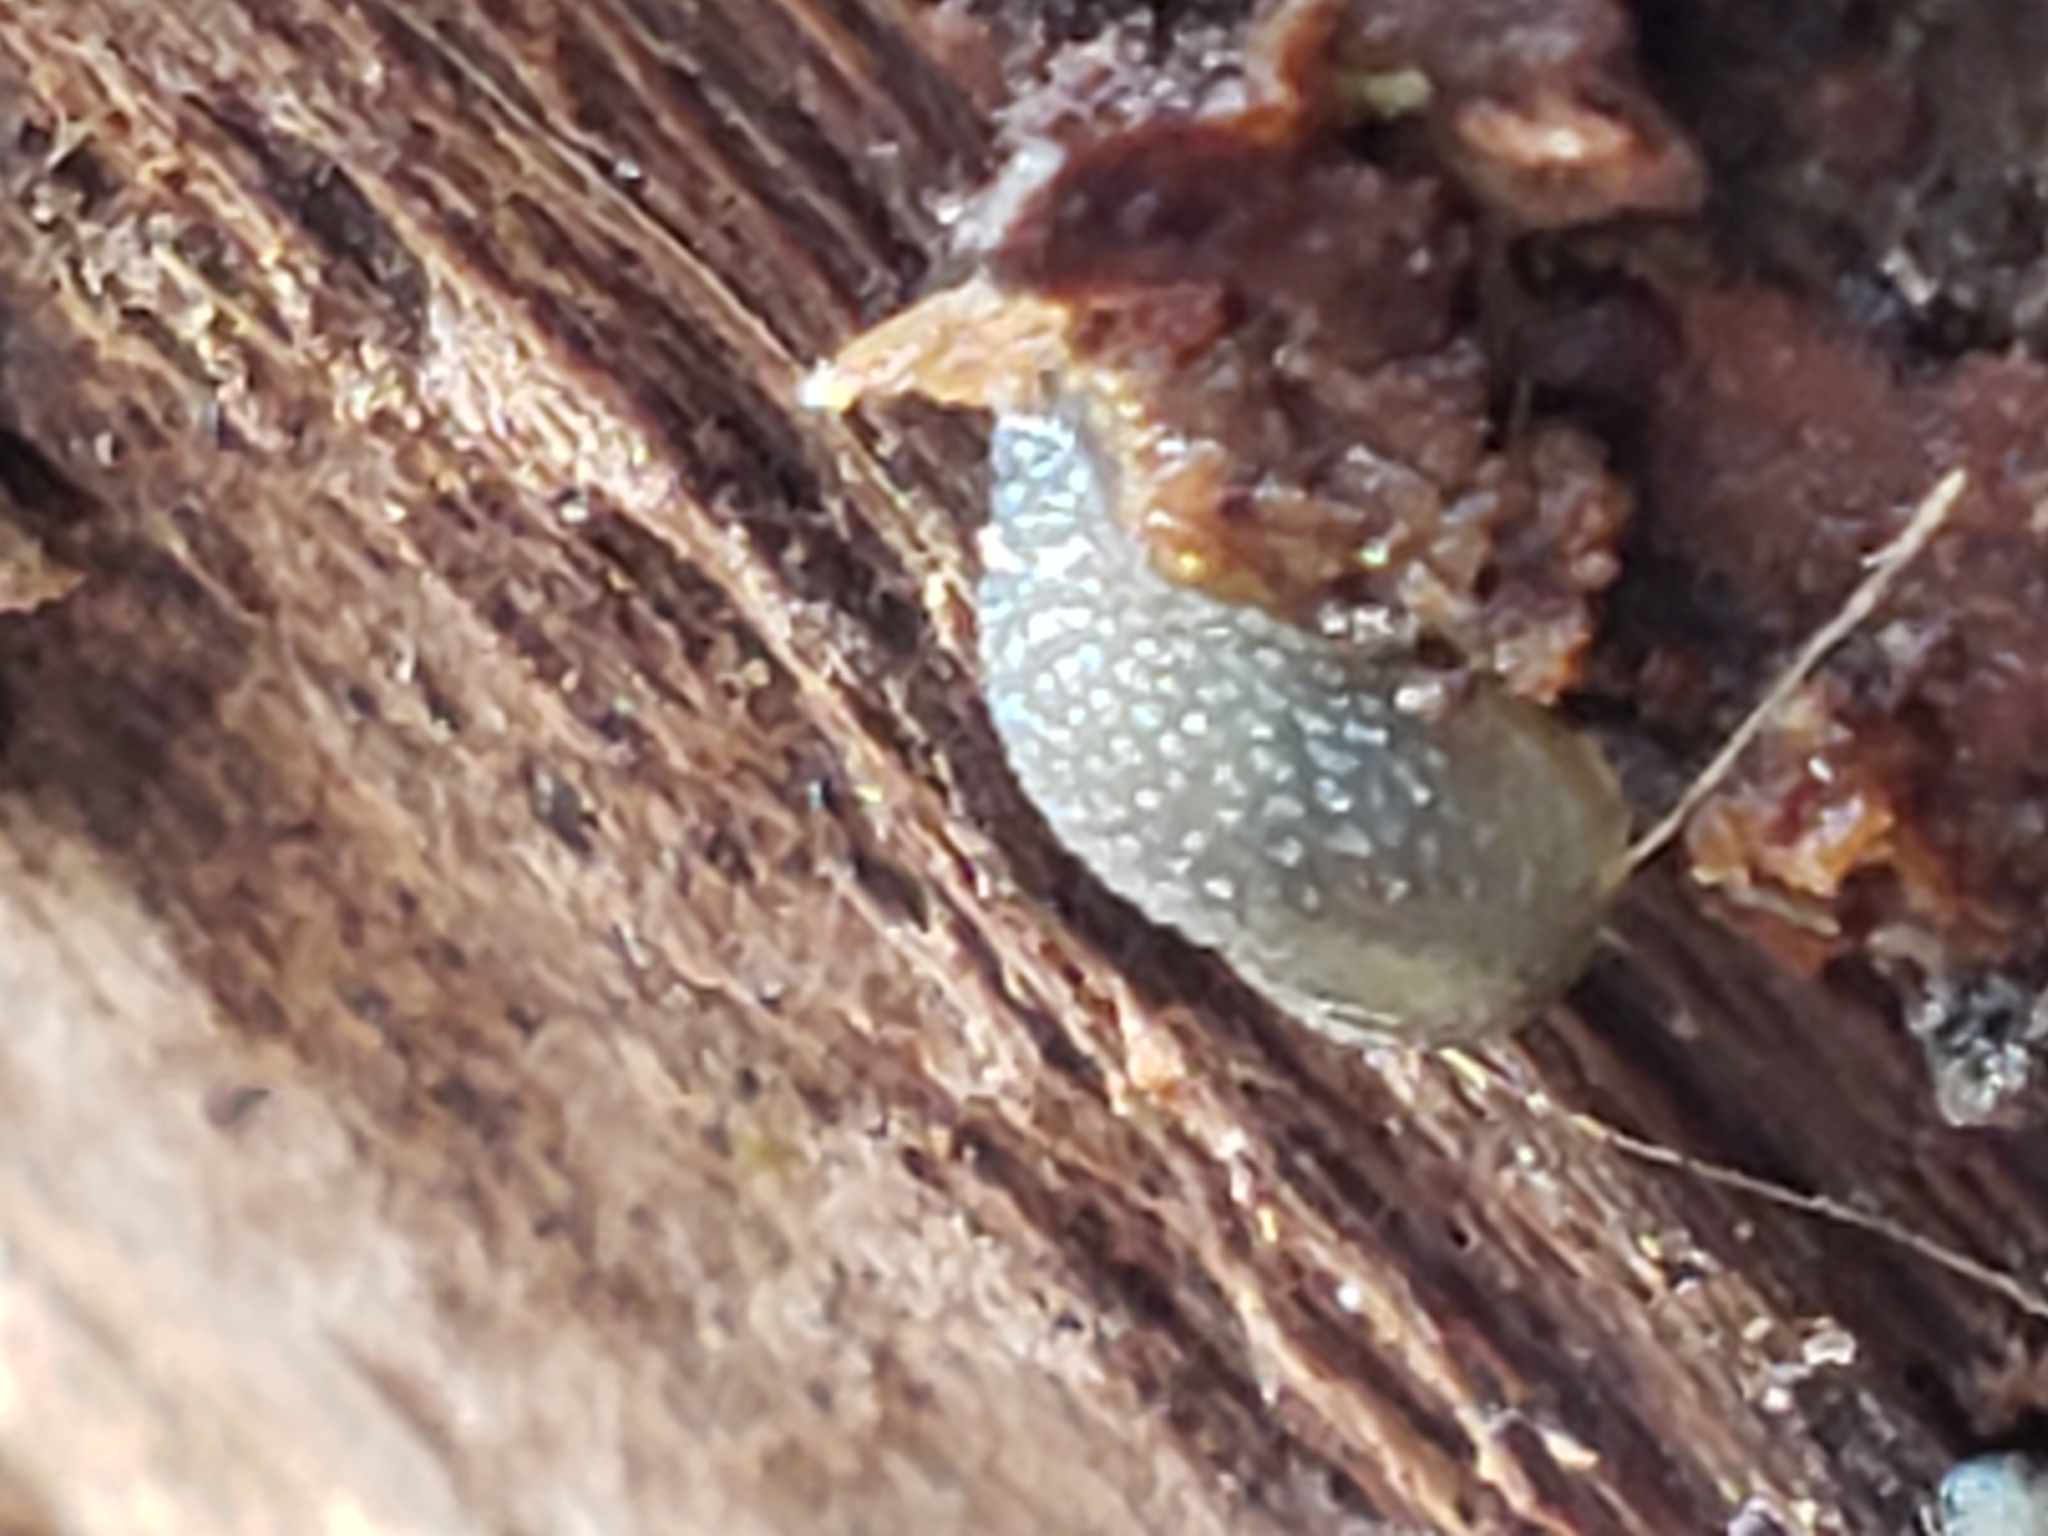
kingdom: Animalia
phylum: Mollusca
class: Gastropoda
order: Stylommatophora
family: Arionidae
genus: Arion
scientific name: Arion intermedius
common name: Hedgehog slug
